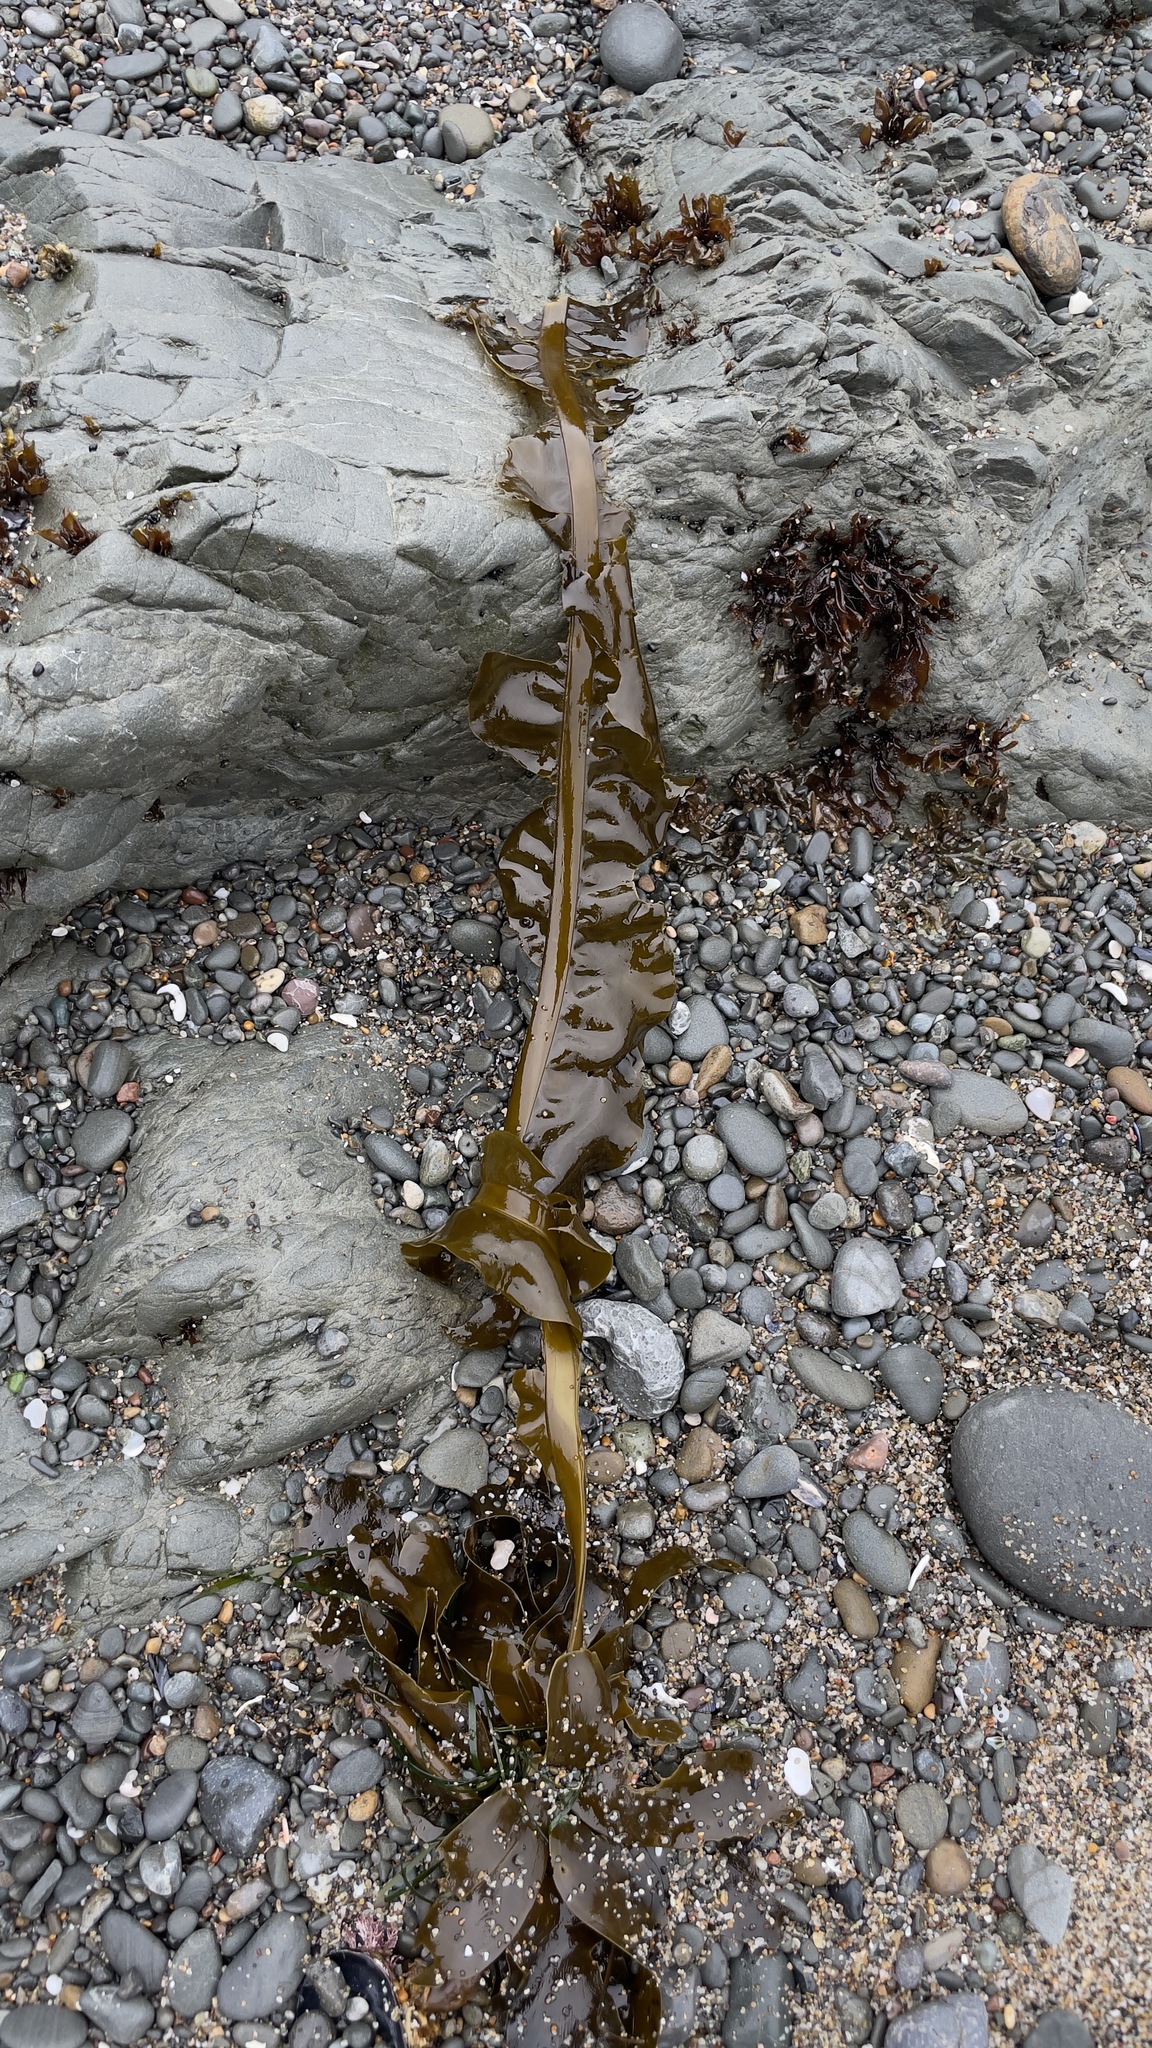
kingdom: Chromista
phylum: Ochrophyta
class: Phaeophyceae
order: Laminariales
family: Alariaceae
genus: Alaria
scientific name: Alaria marginata
